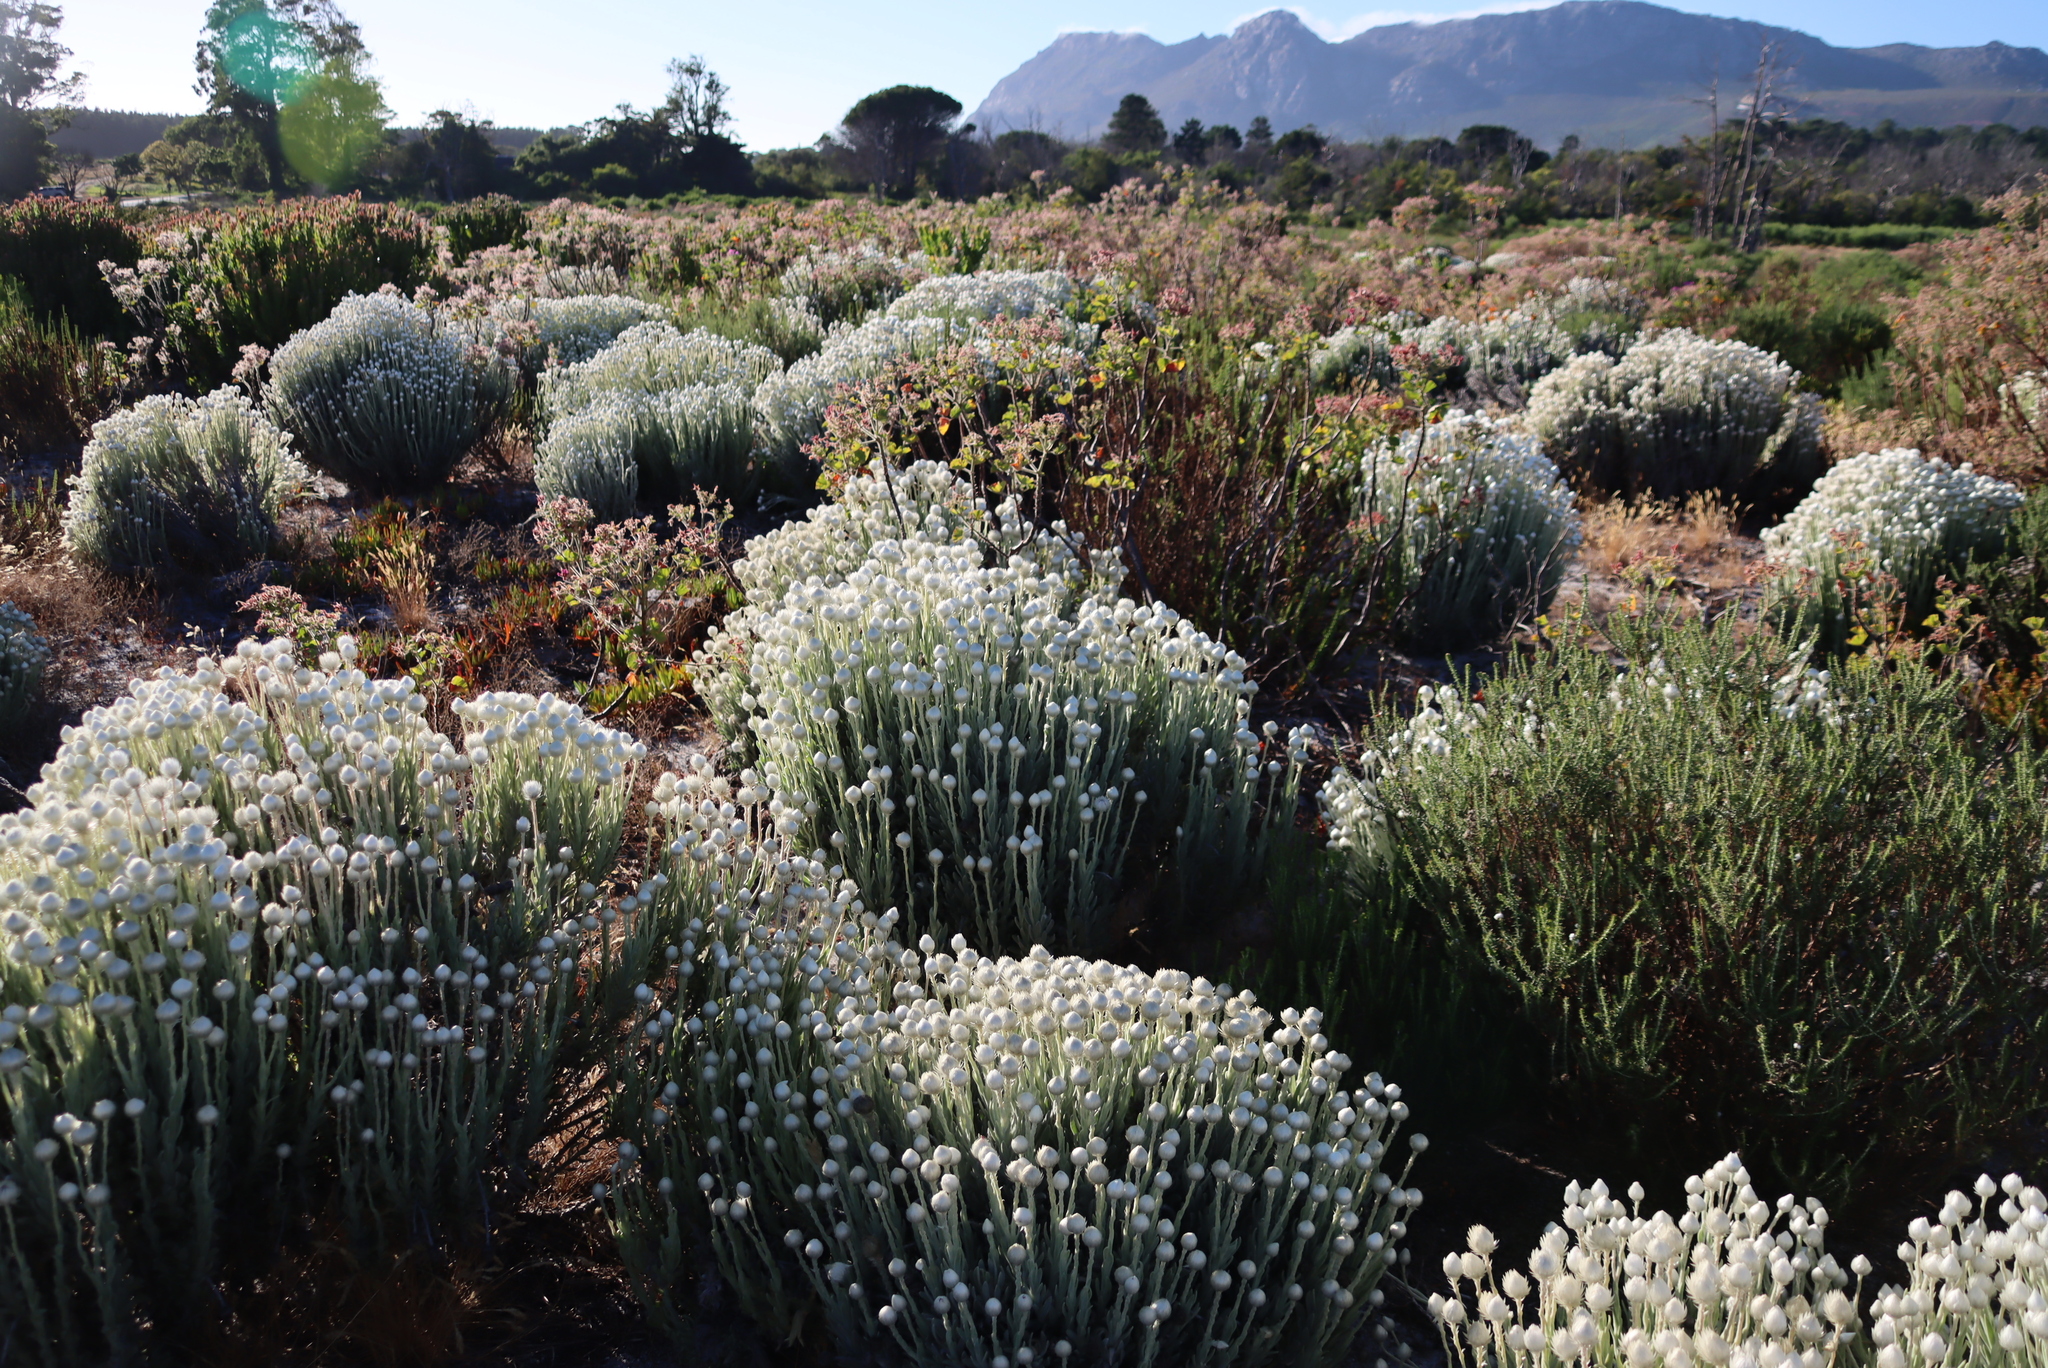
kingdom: Plantae
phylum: Tracheophyta
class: Magnoliopsida
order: Asterales
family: Asteraceae
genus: Syncarpha
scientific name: Syncarpha vestita
